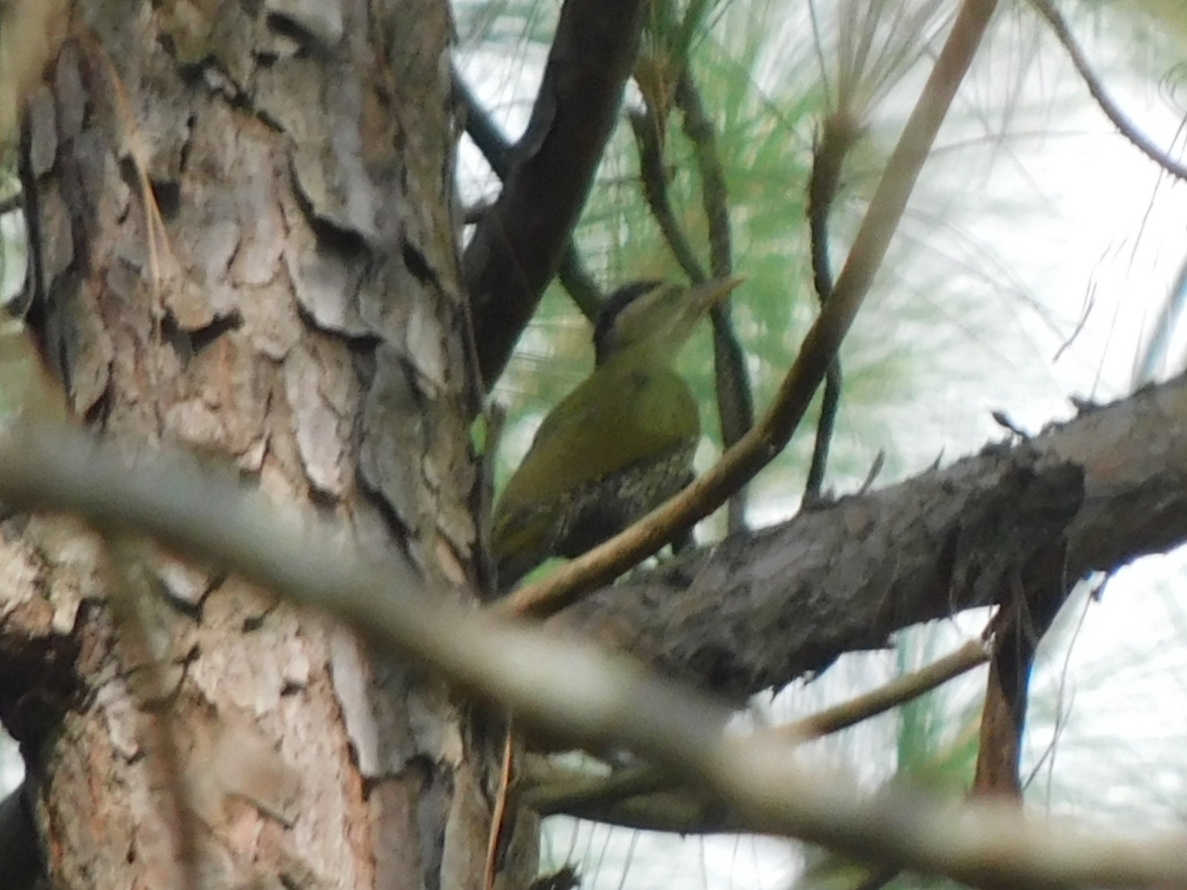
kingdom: Animalia
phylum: Chordata
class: Aves
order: Piciformes
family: Picidae
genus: Picus
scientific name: Picus squamatus
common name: Scaly-bellied woodpecker
